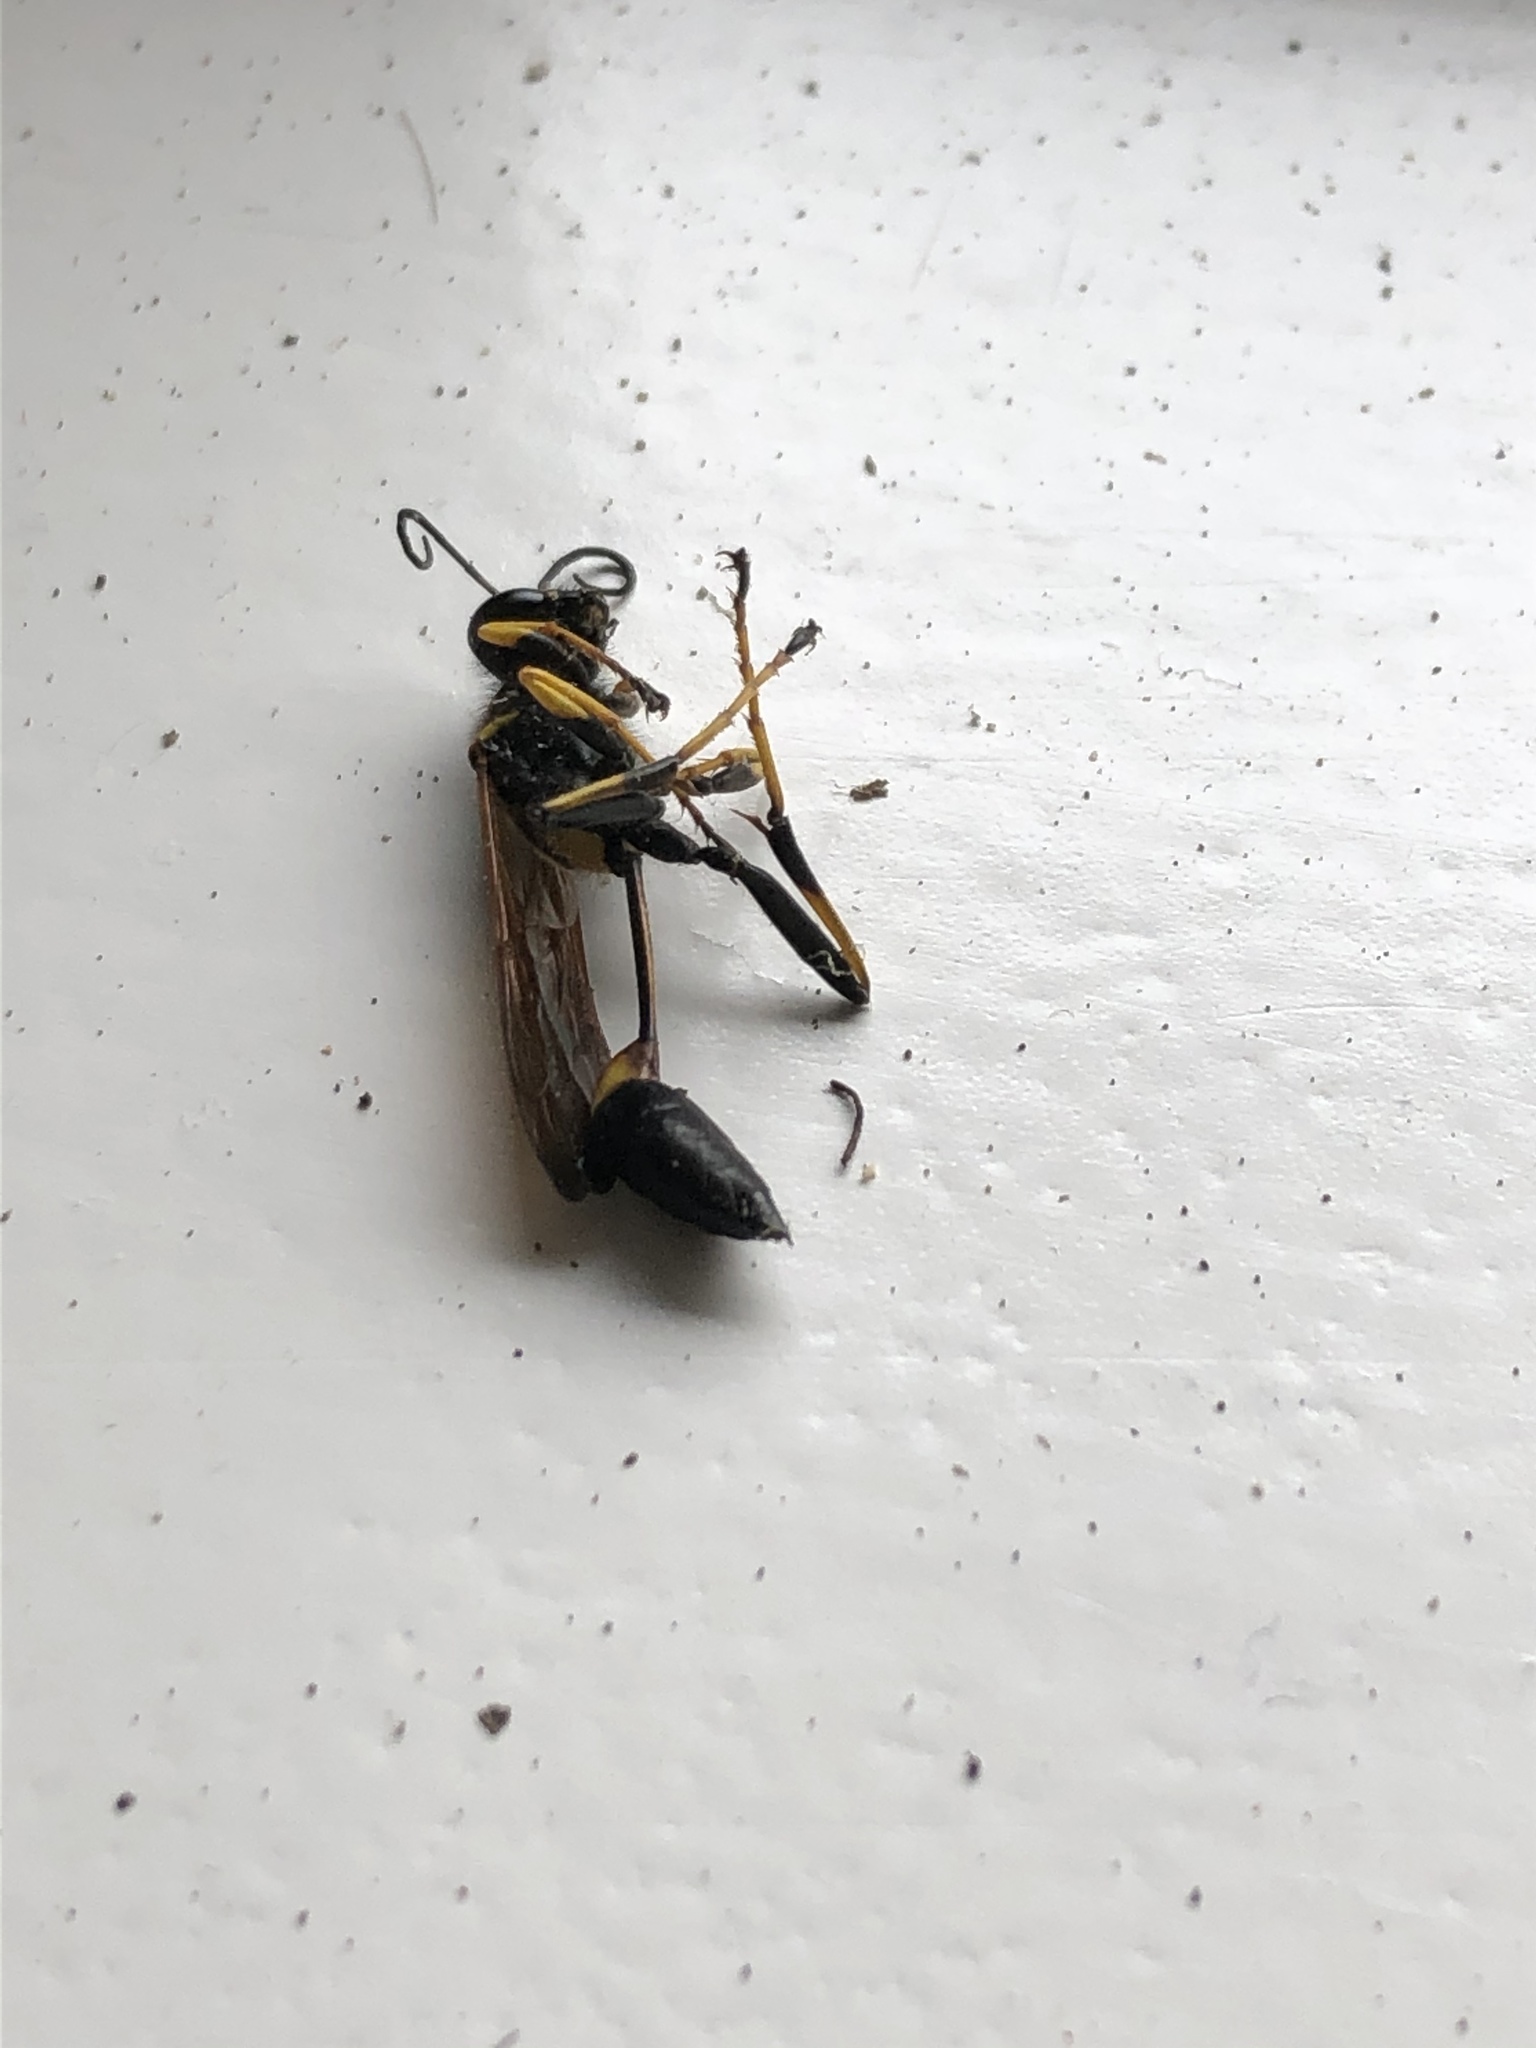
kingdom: Animalia
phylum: Arthropoda
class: Insecta
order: Hymenoptera
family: Sphecidae
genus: Sceliphron
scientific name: Sceliphron caementarium
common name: Mud dauber
